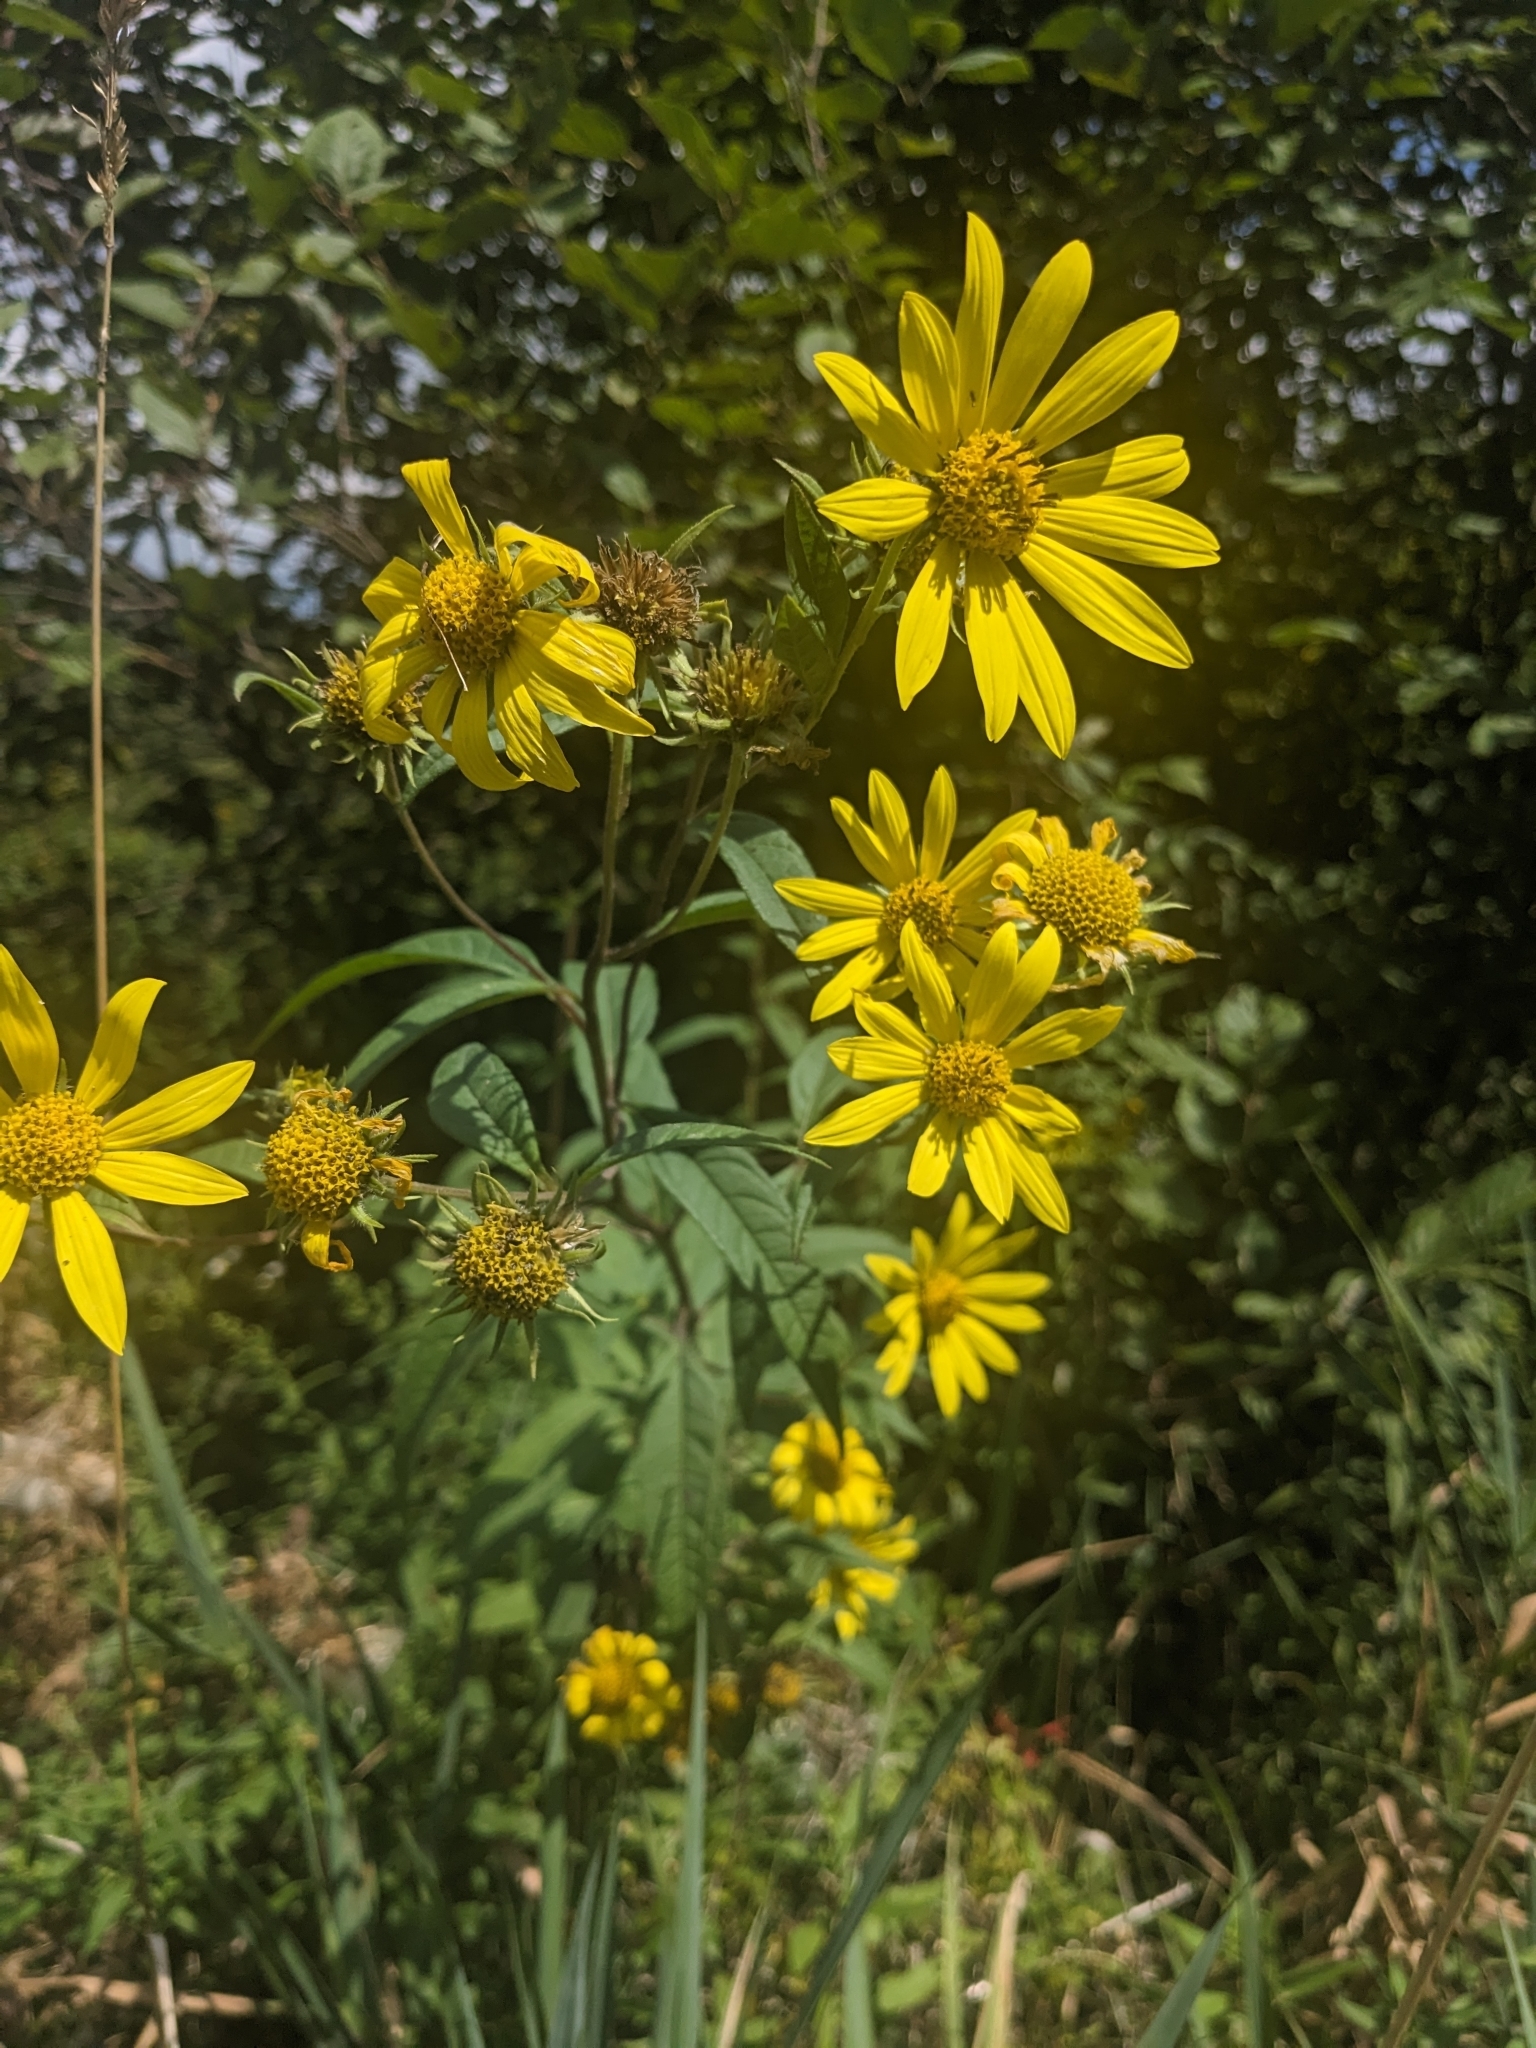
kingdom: Plantae
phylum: Tracheophyta
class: Magnoliopsida
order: Asterales
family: Asteraceae
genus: Helianthus
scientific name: Helianthus giganteus
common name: Giant sunflower
